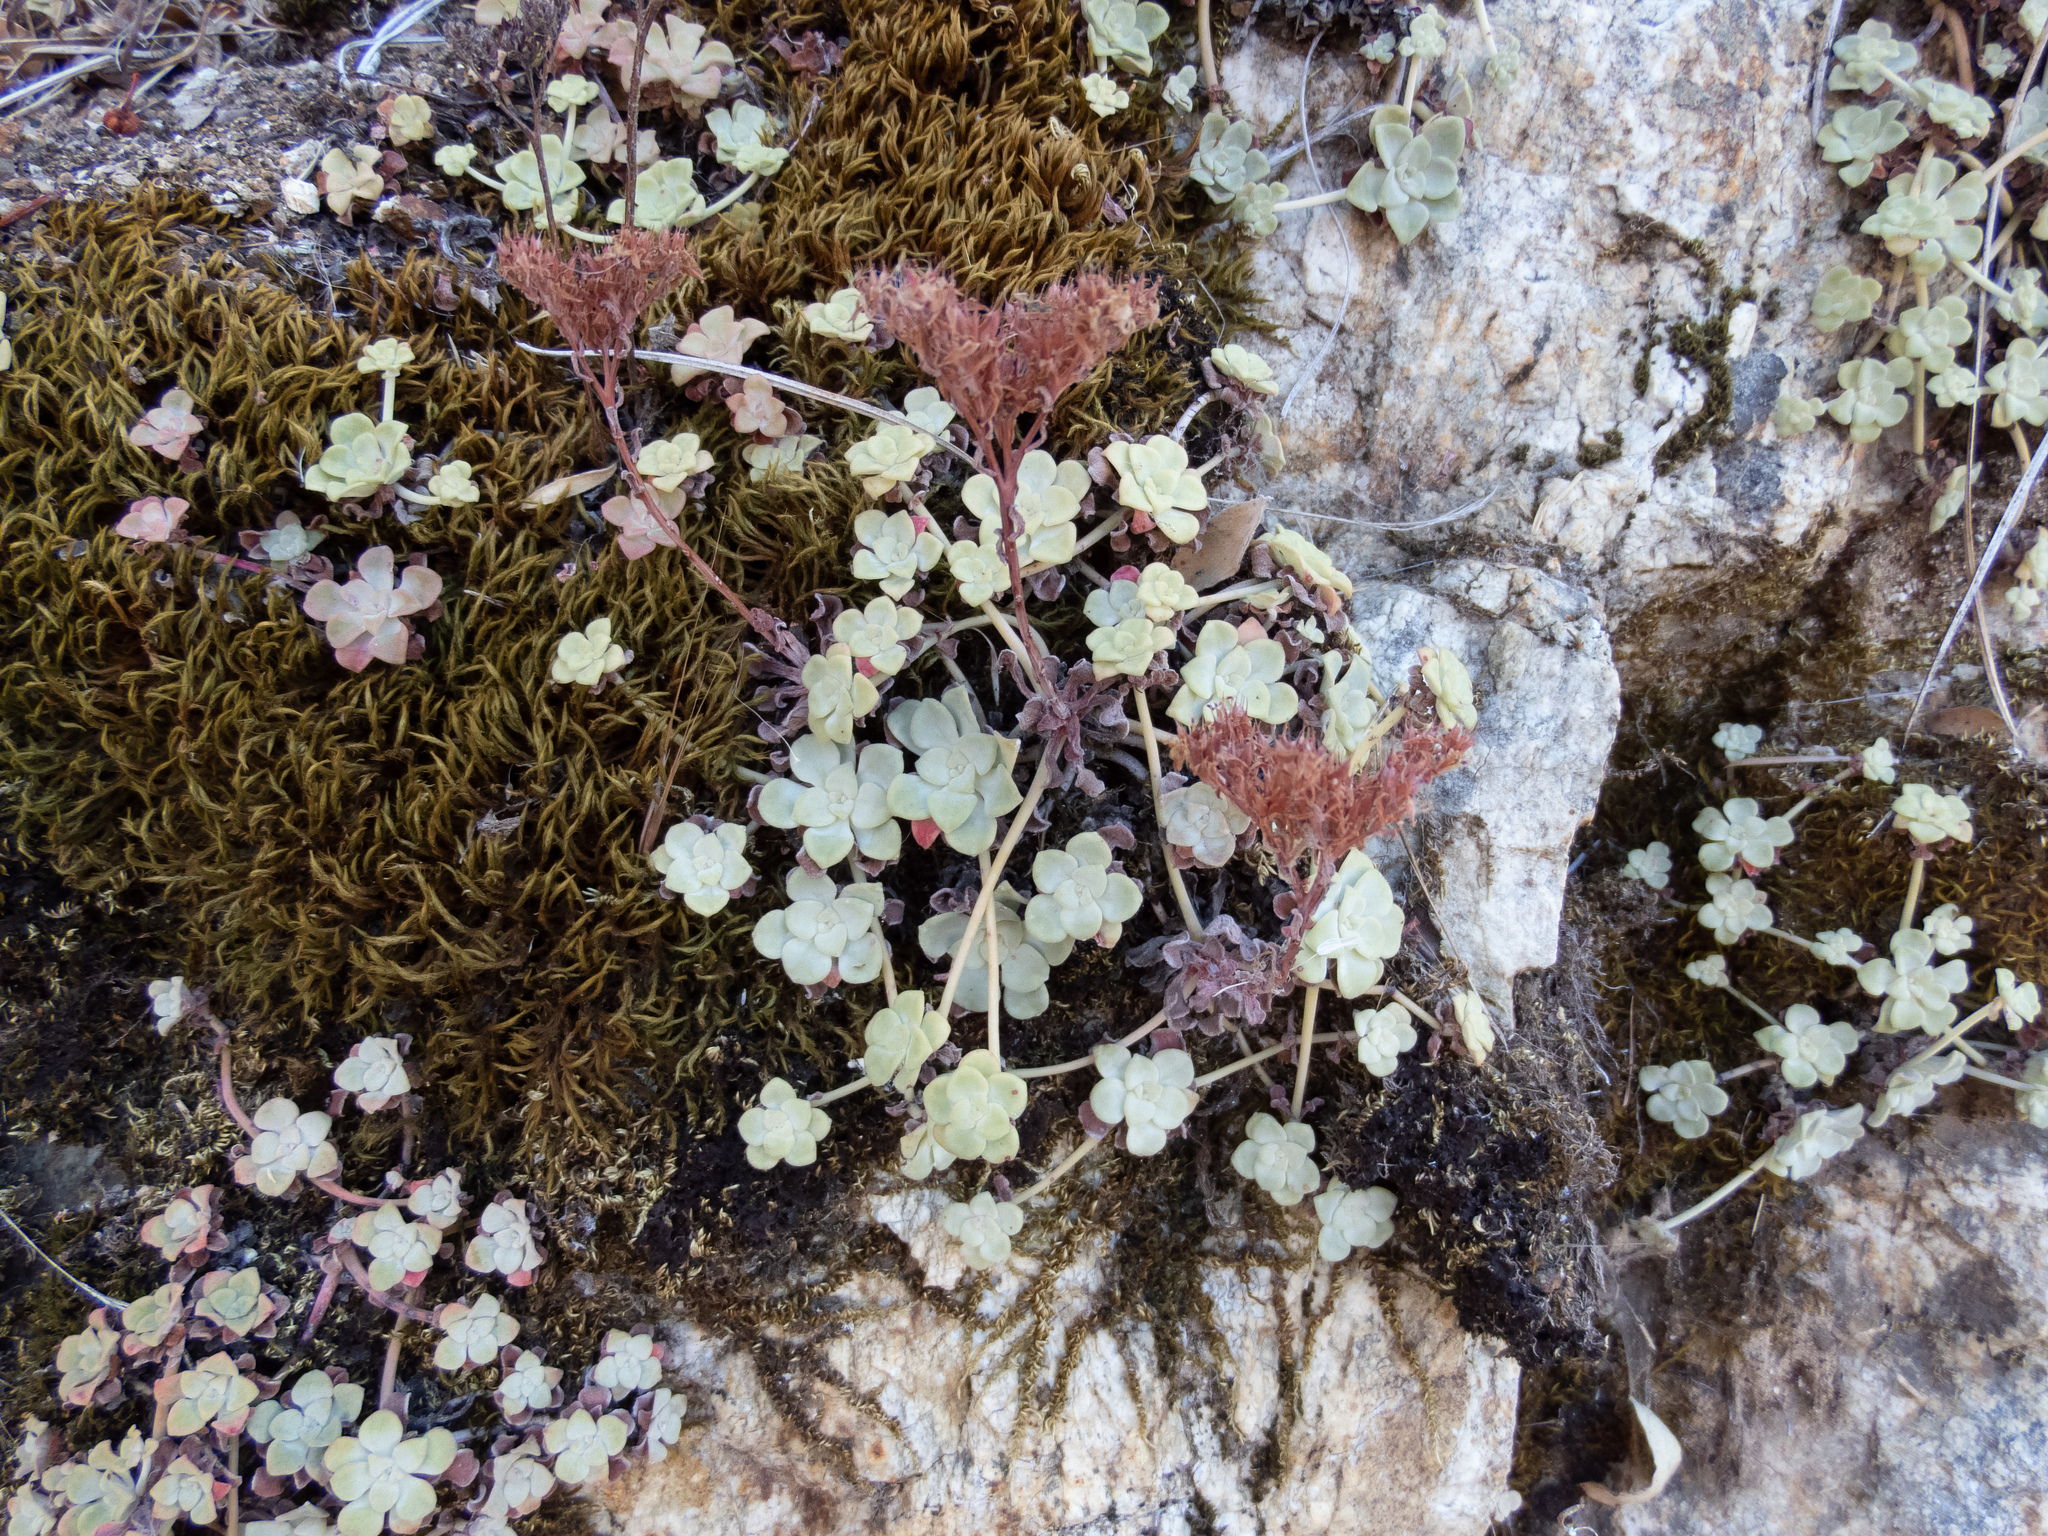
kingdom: Plantae
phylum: Tracheophyta
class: Magnoliopsida
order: Saxifragales
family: Crassulaceae
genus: Sedum
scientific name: Sedum spathulifolium
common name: Colorado stonecrop
